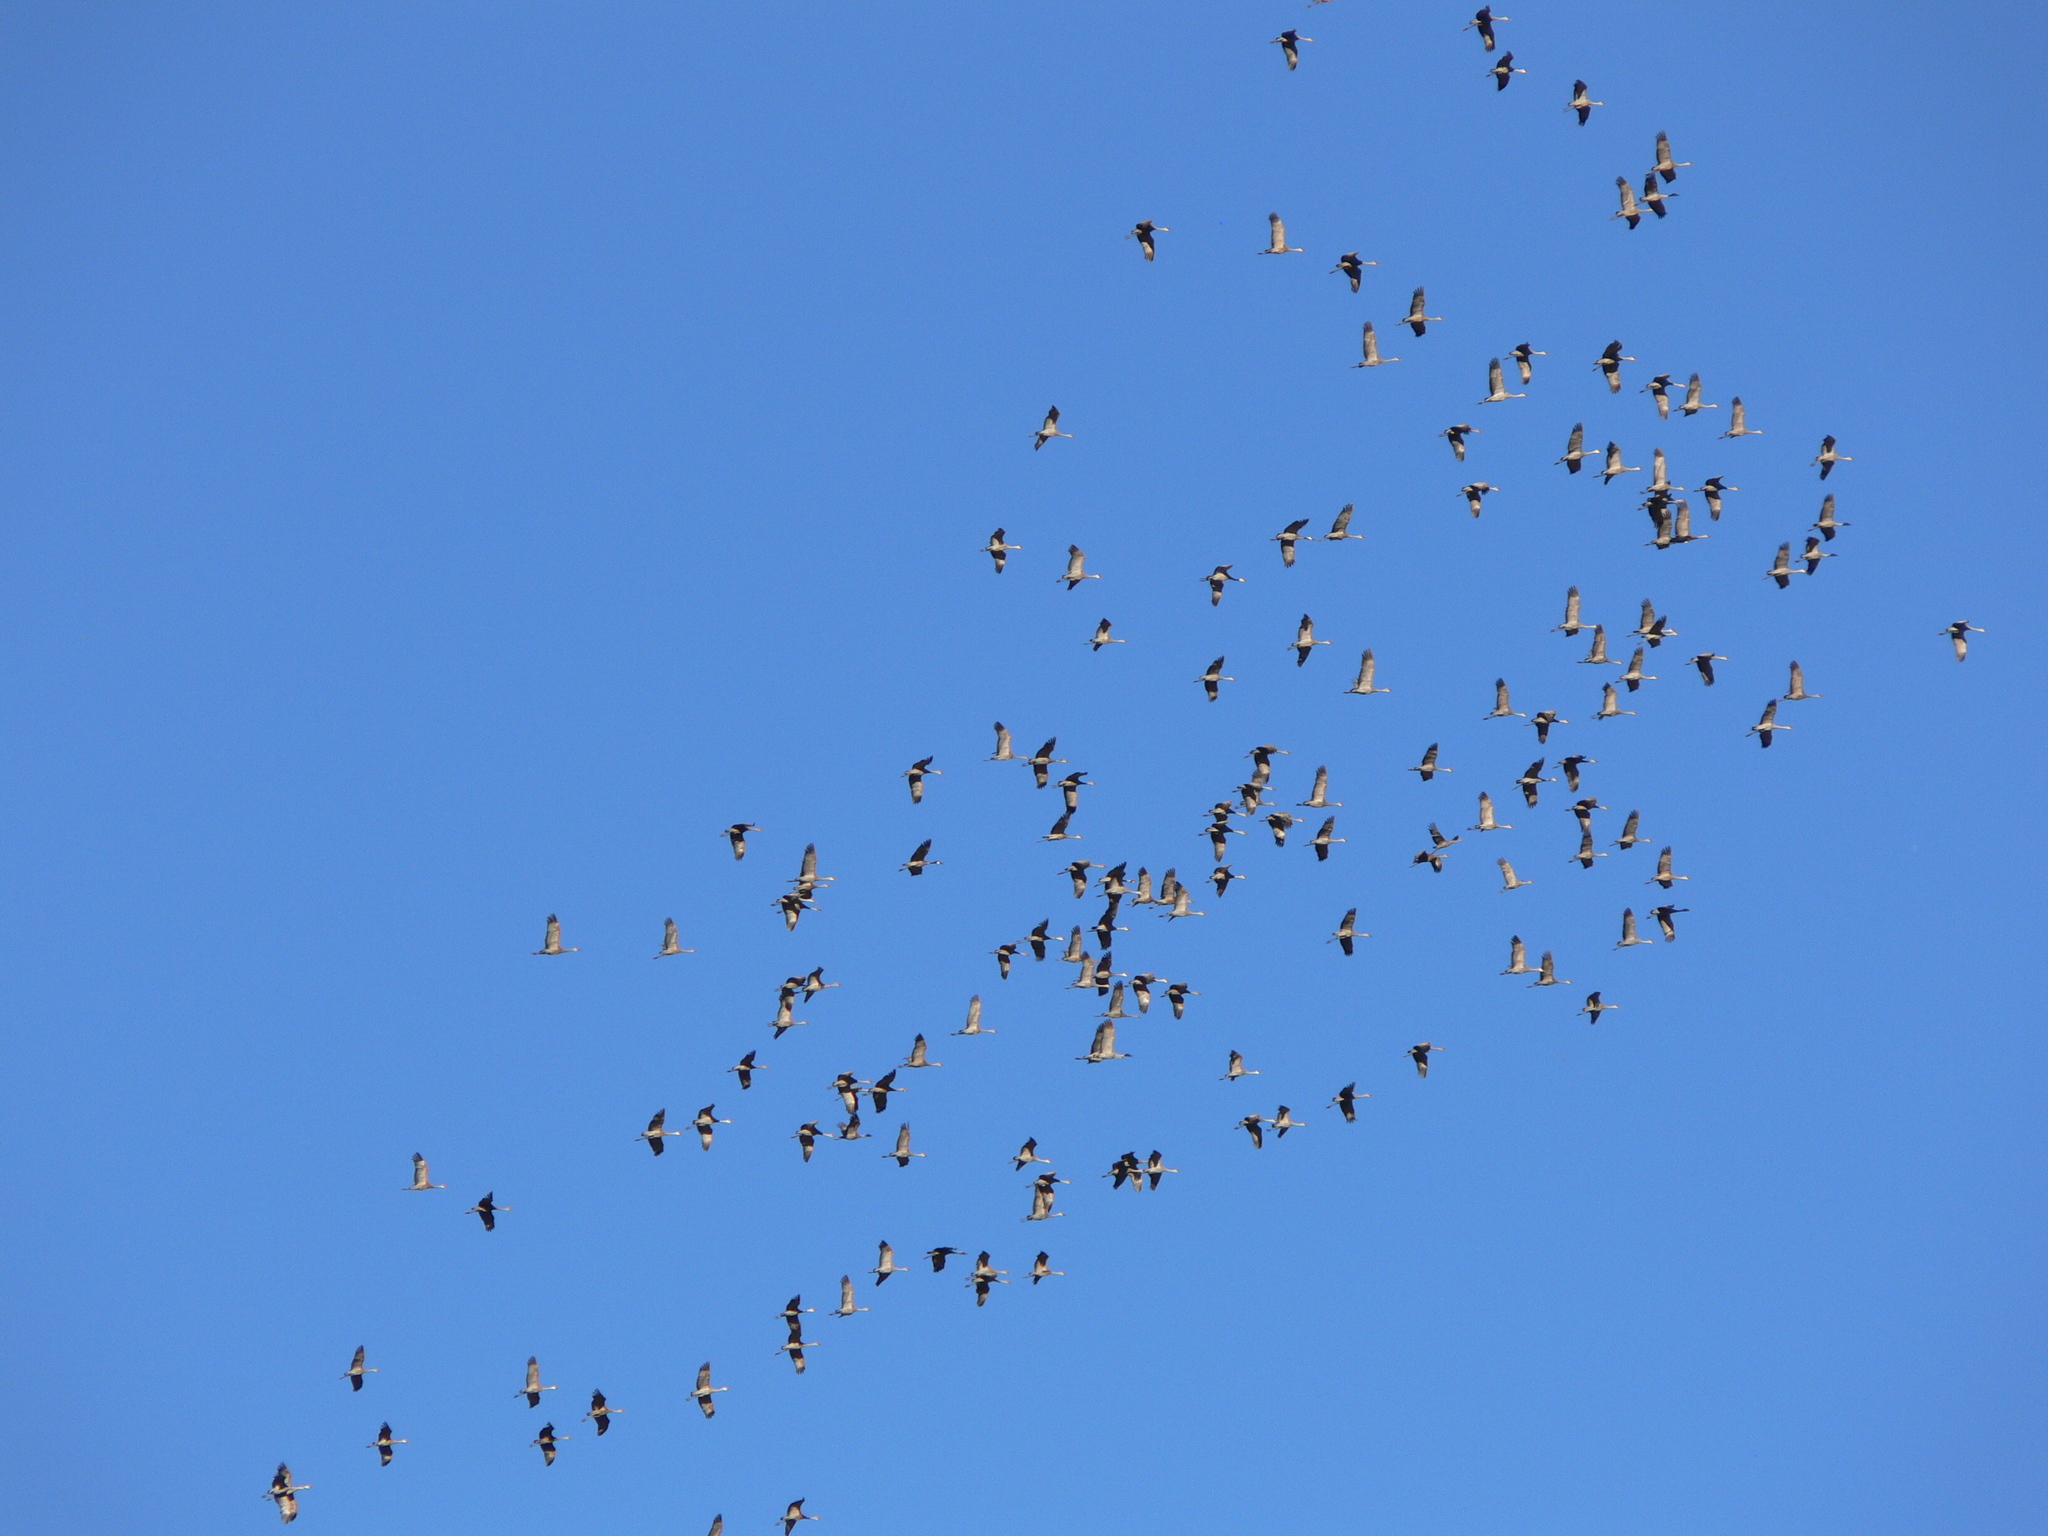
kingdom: Animalia
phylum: Chordata
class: Aves
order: Gruiformes
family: Gruidae
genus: Grus
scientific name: Grus canadensis
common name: Sandhill crane
